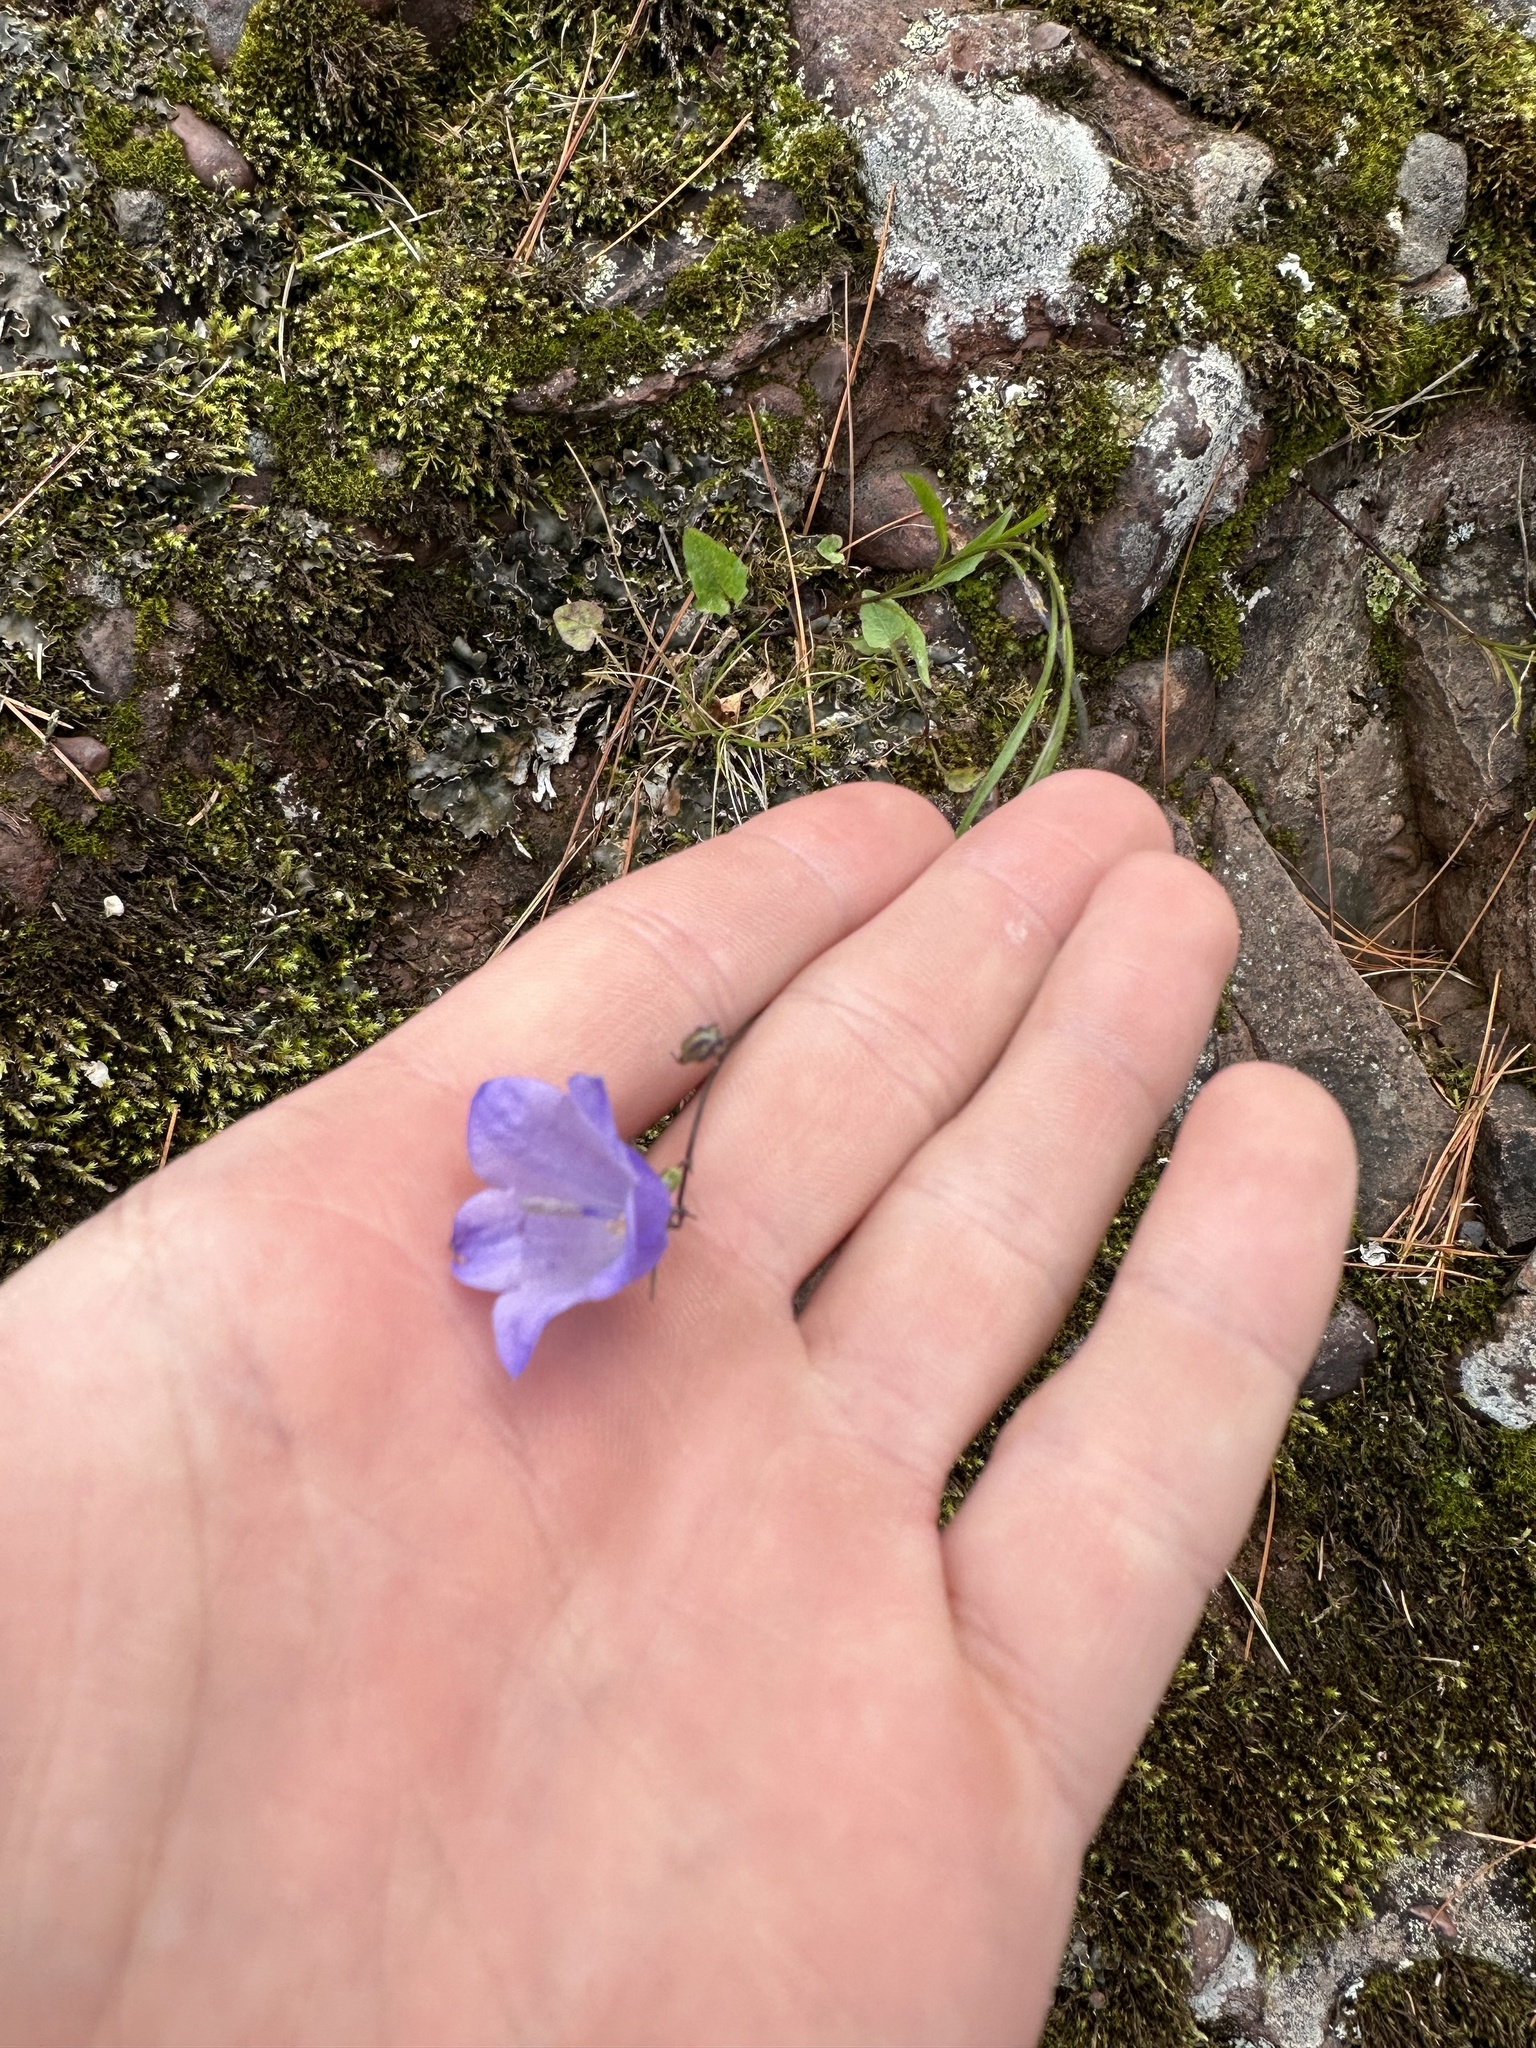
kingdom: Plantae
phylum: Tracheophyta
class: Magnoliopsida
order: Asterales
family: Campanulaceae
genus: Campanula
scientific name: Campanula intercedens
